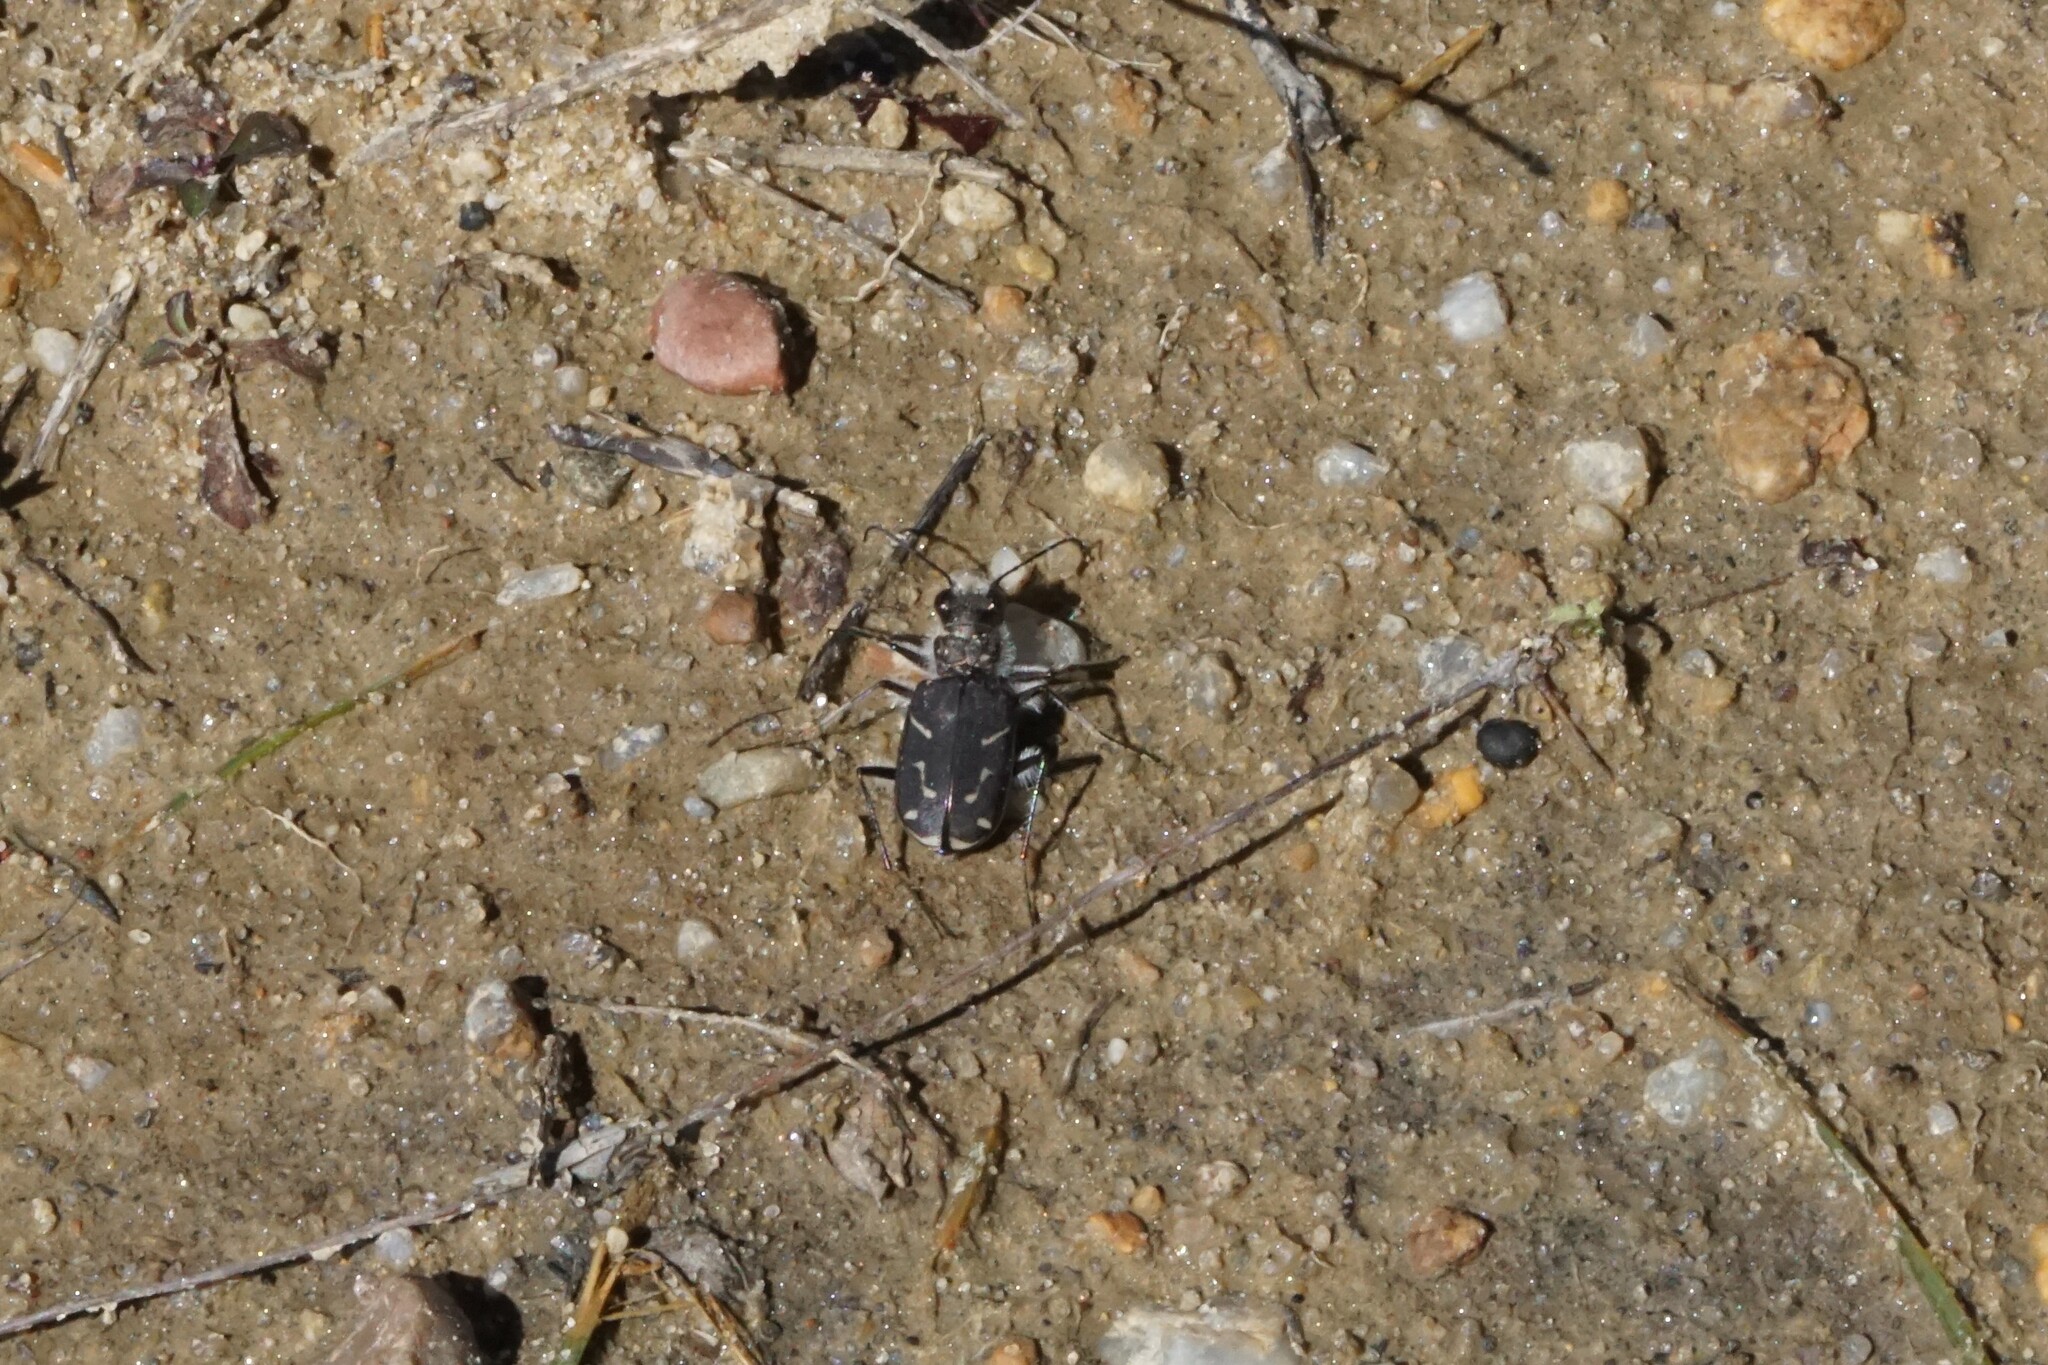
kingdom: Animalia
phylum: Arthropoda
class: Insecta
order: Coleoptera
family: Carabidae
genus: Cicindela
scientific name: Cicindela tranquebarica
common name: Oblique-lined tiger beetle
